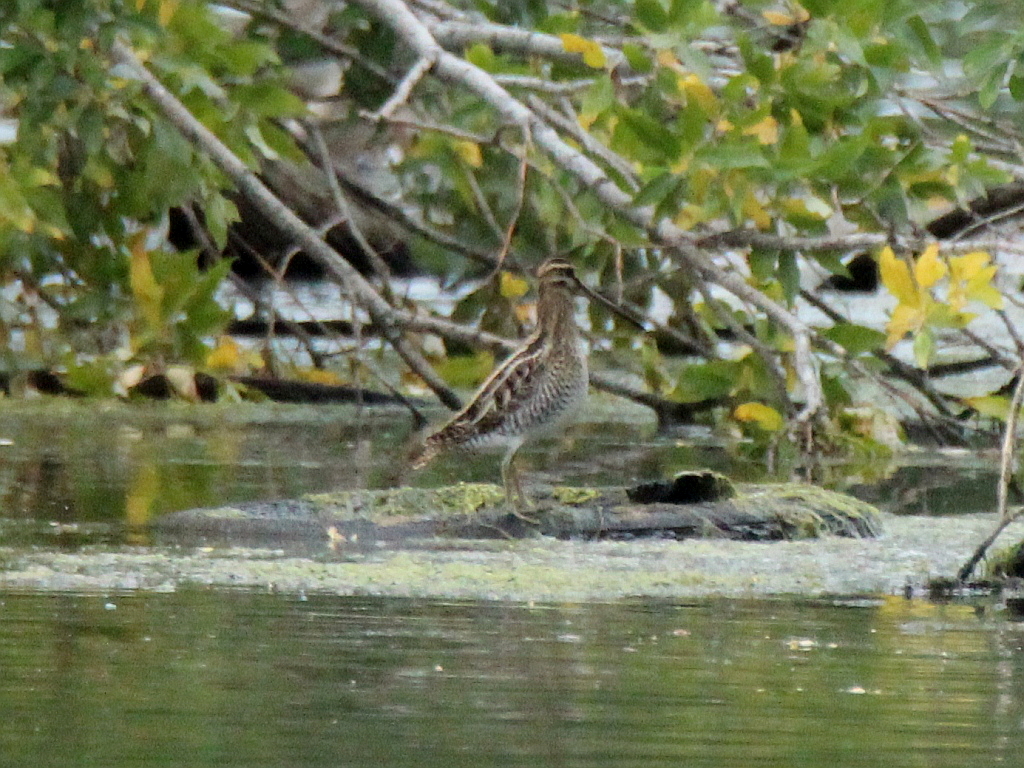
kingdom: Animalia
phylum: Chordata
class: Aves
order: Charadriiformes
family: Scolopacidae
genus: Gallinago
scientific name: Gallinago gallinago
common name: Common snipe
